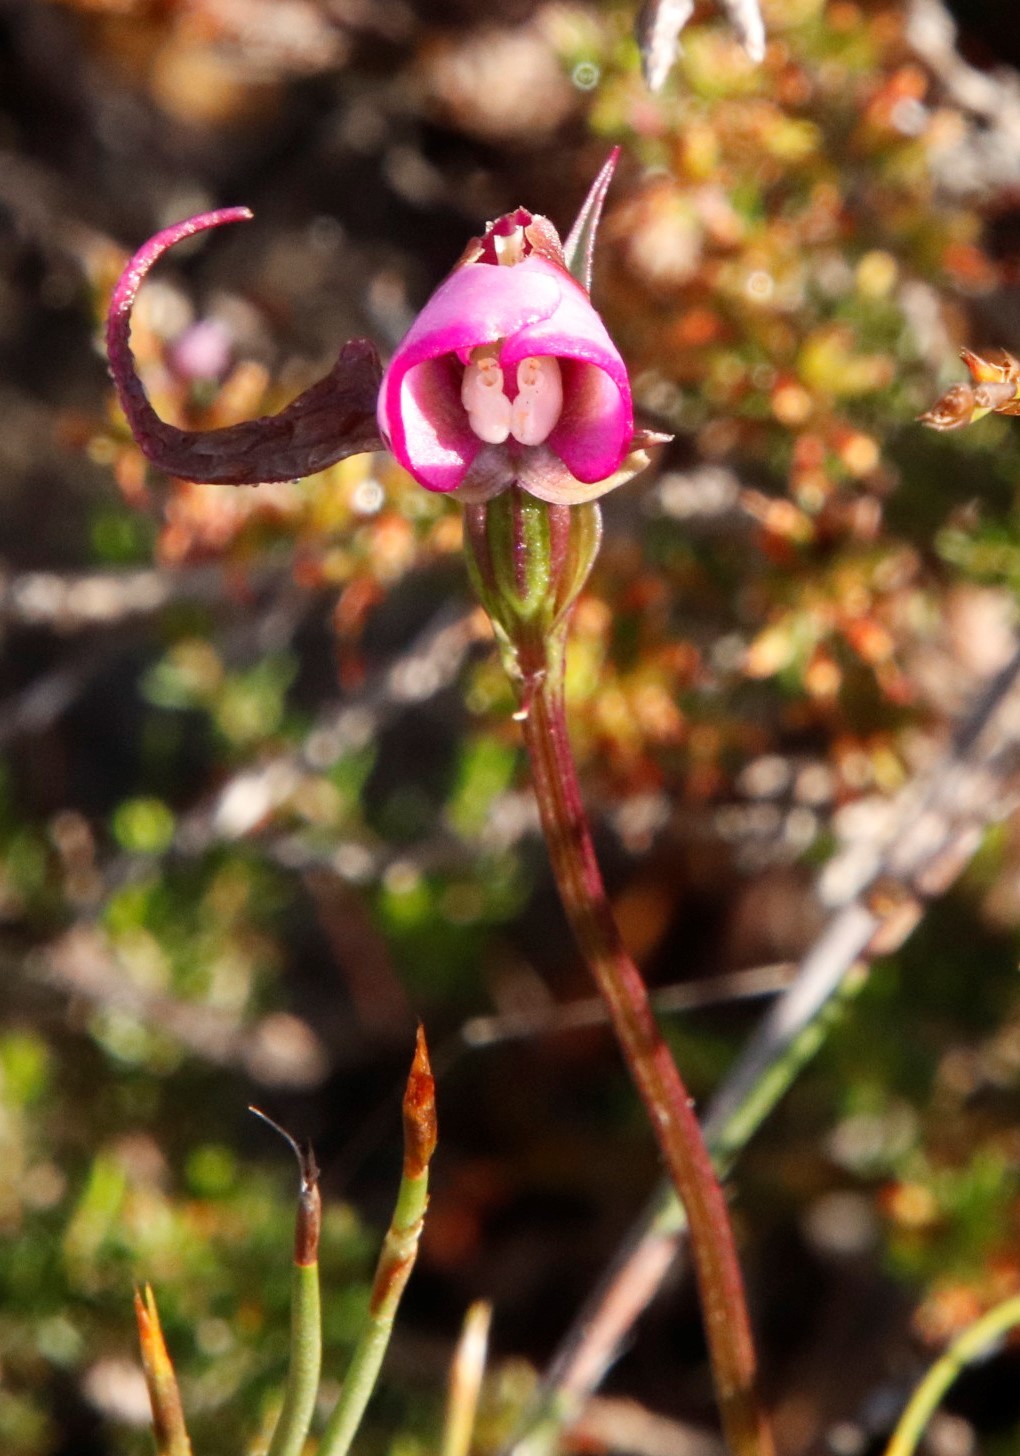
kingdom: Plantae
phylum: Tracheophyta
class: Liliopsida
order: Asparagales
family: Orchidaceae
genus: Disperis
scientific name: Disperis capensis
